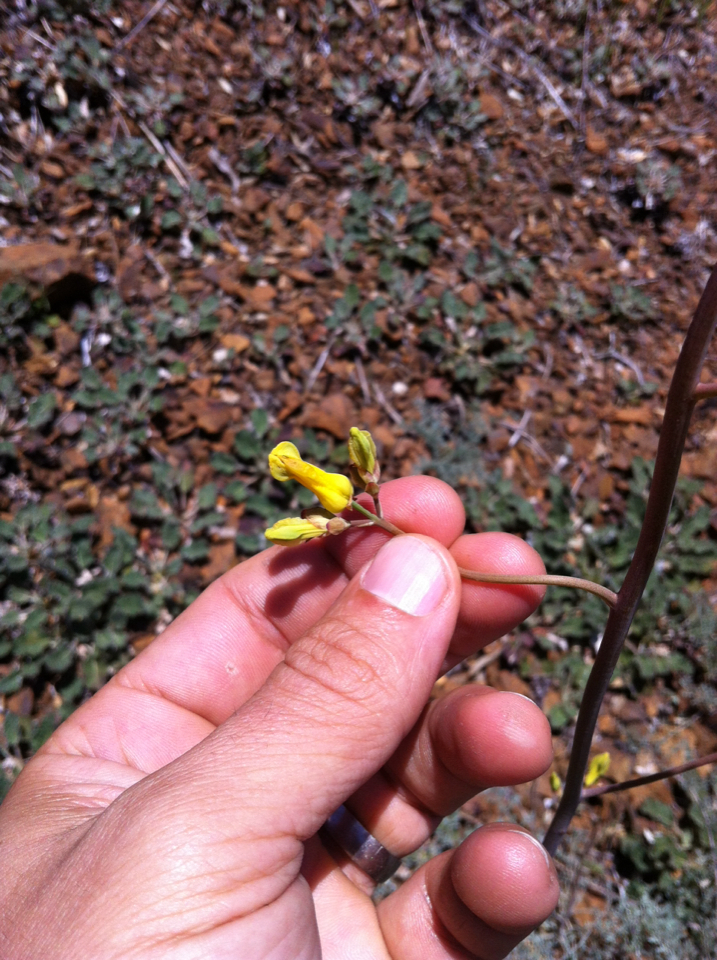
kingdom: Plantae
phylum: Tracheophyta
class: Magnoliopsida
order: Ranunculales
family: Papaveraceae
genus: Ehrendorferia
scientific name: Ehrendorferia chrysantha
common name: Golden eardrops
